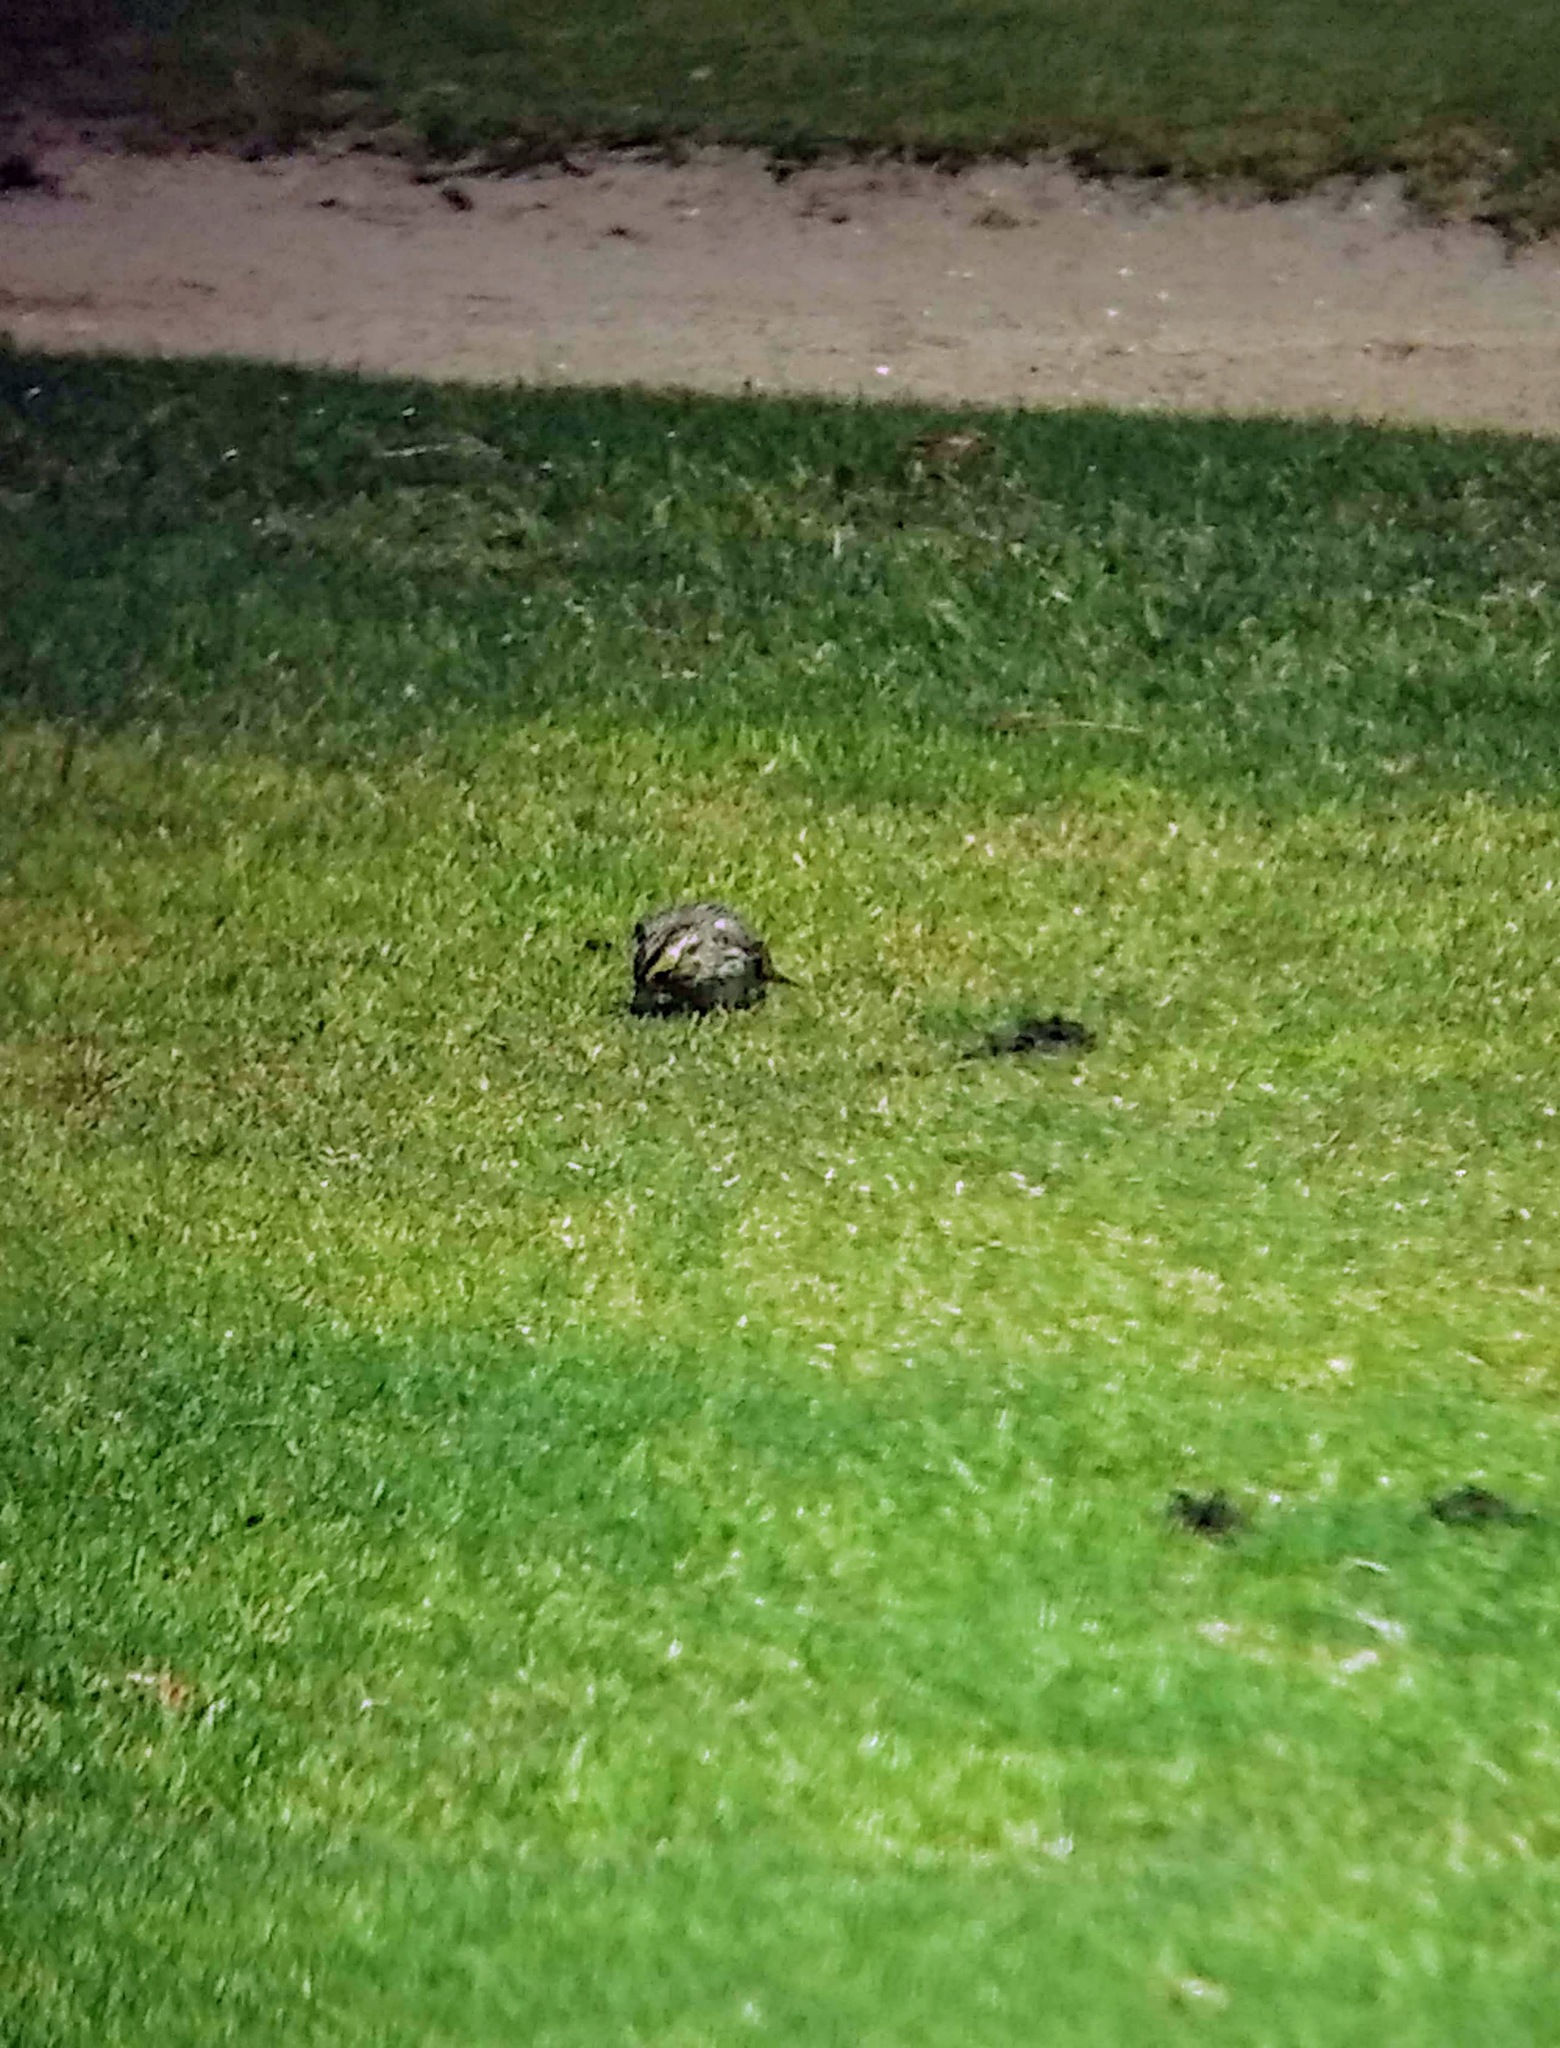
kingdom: Animalia
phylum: Chordata
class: Aves
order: Passeriformes
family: Passerellidae
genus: Passerculus
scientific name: Passerculus sandwichensis
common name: Savannah sparrow
